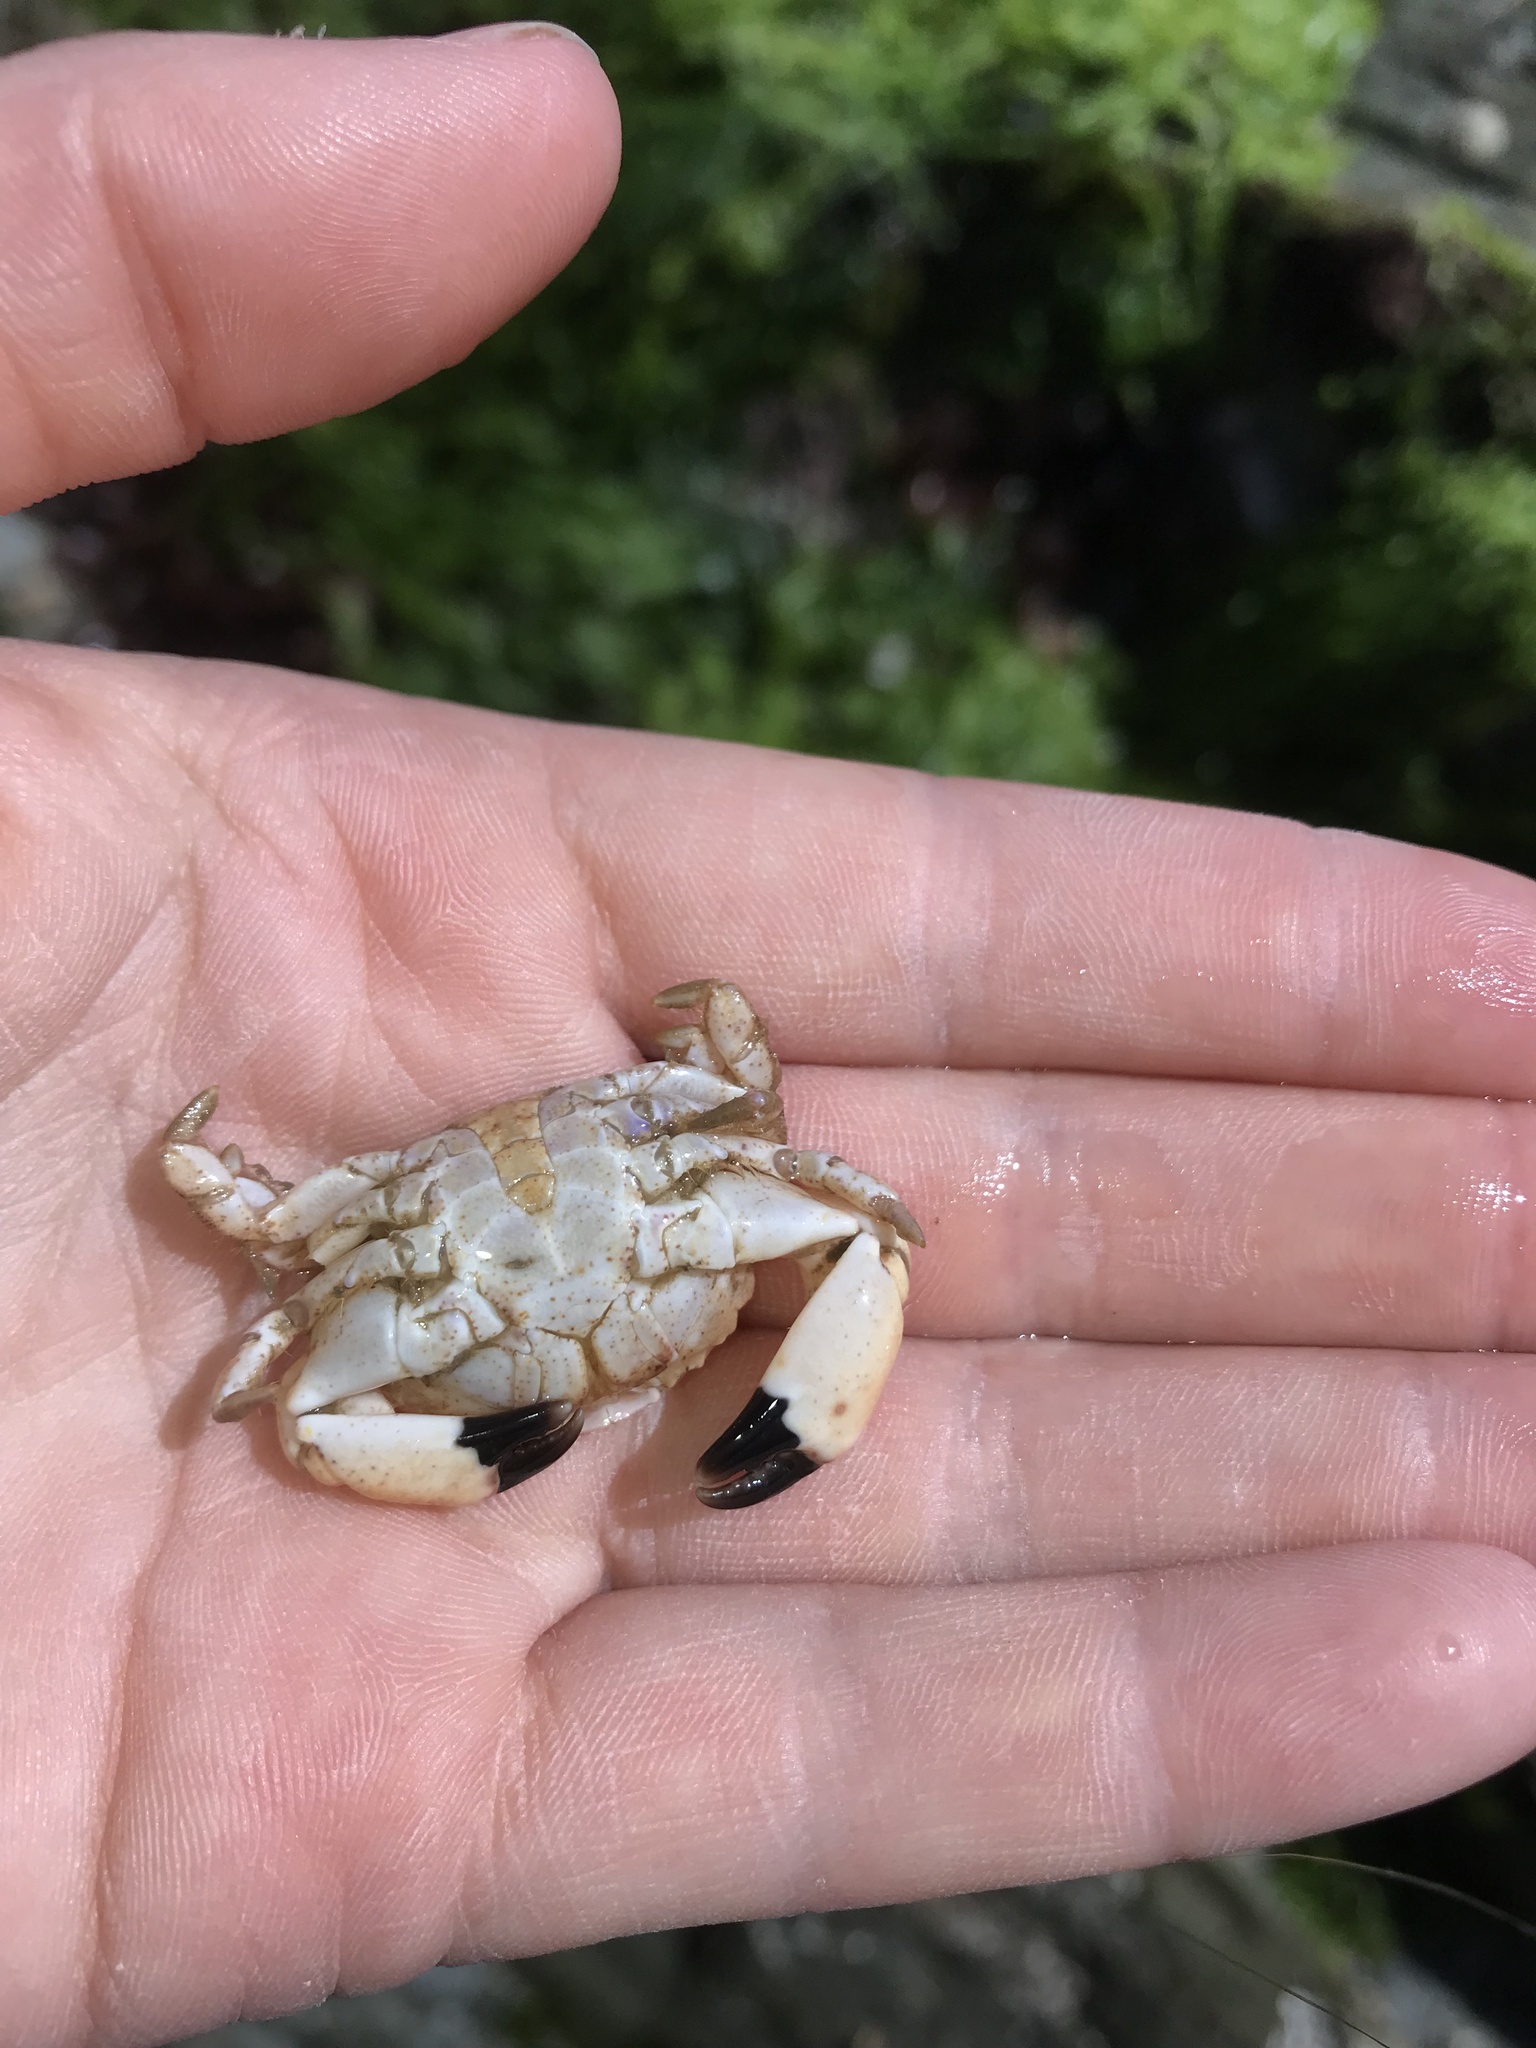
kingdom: Animalia
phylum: Arthropoda
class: Malacostraca
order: Decapoda
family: Xanthidae
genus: Xantho
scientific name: Xantho hydrophilus
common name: Montagu's crab
